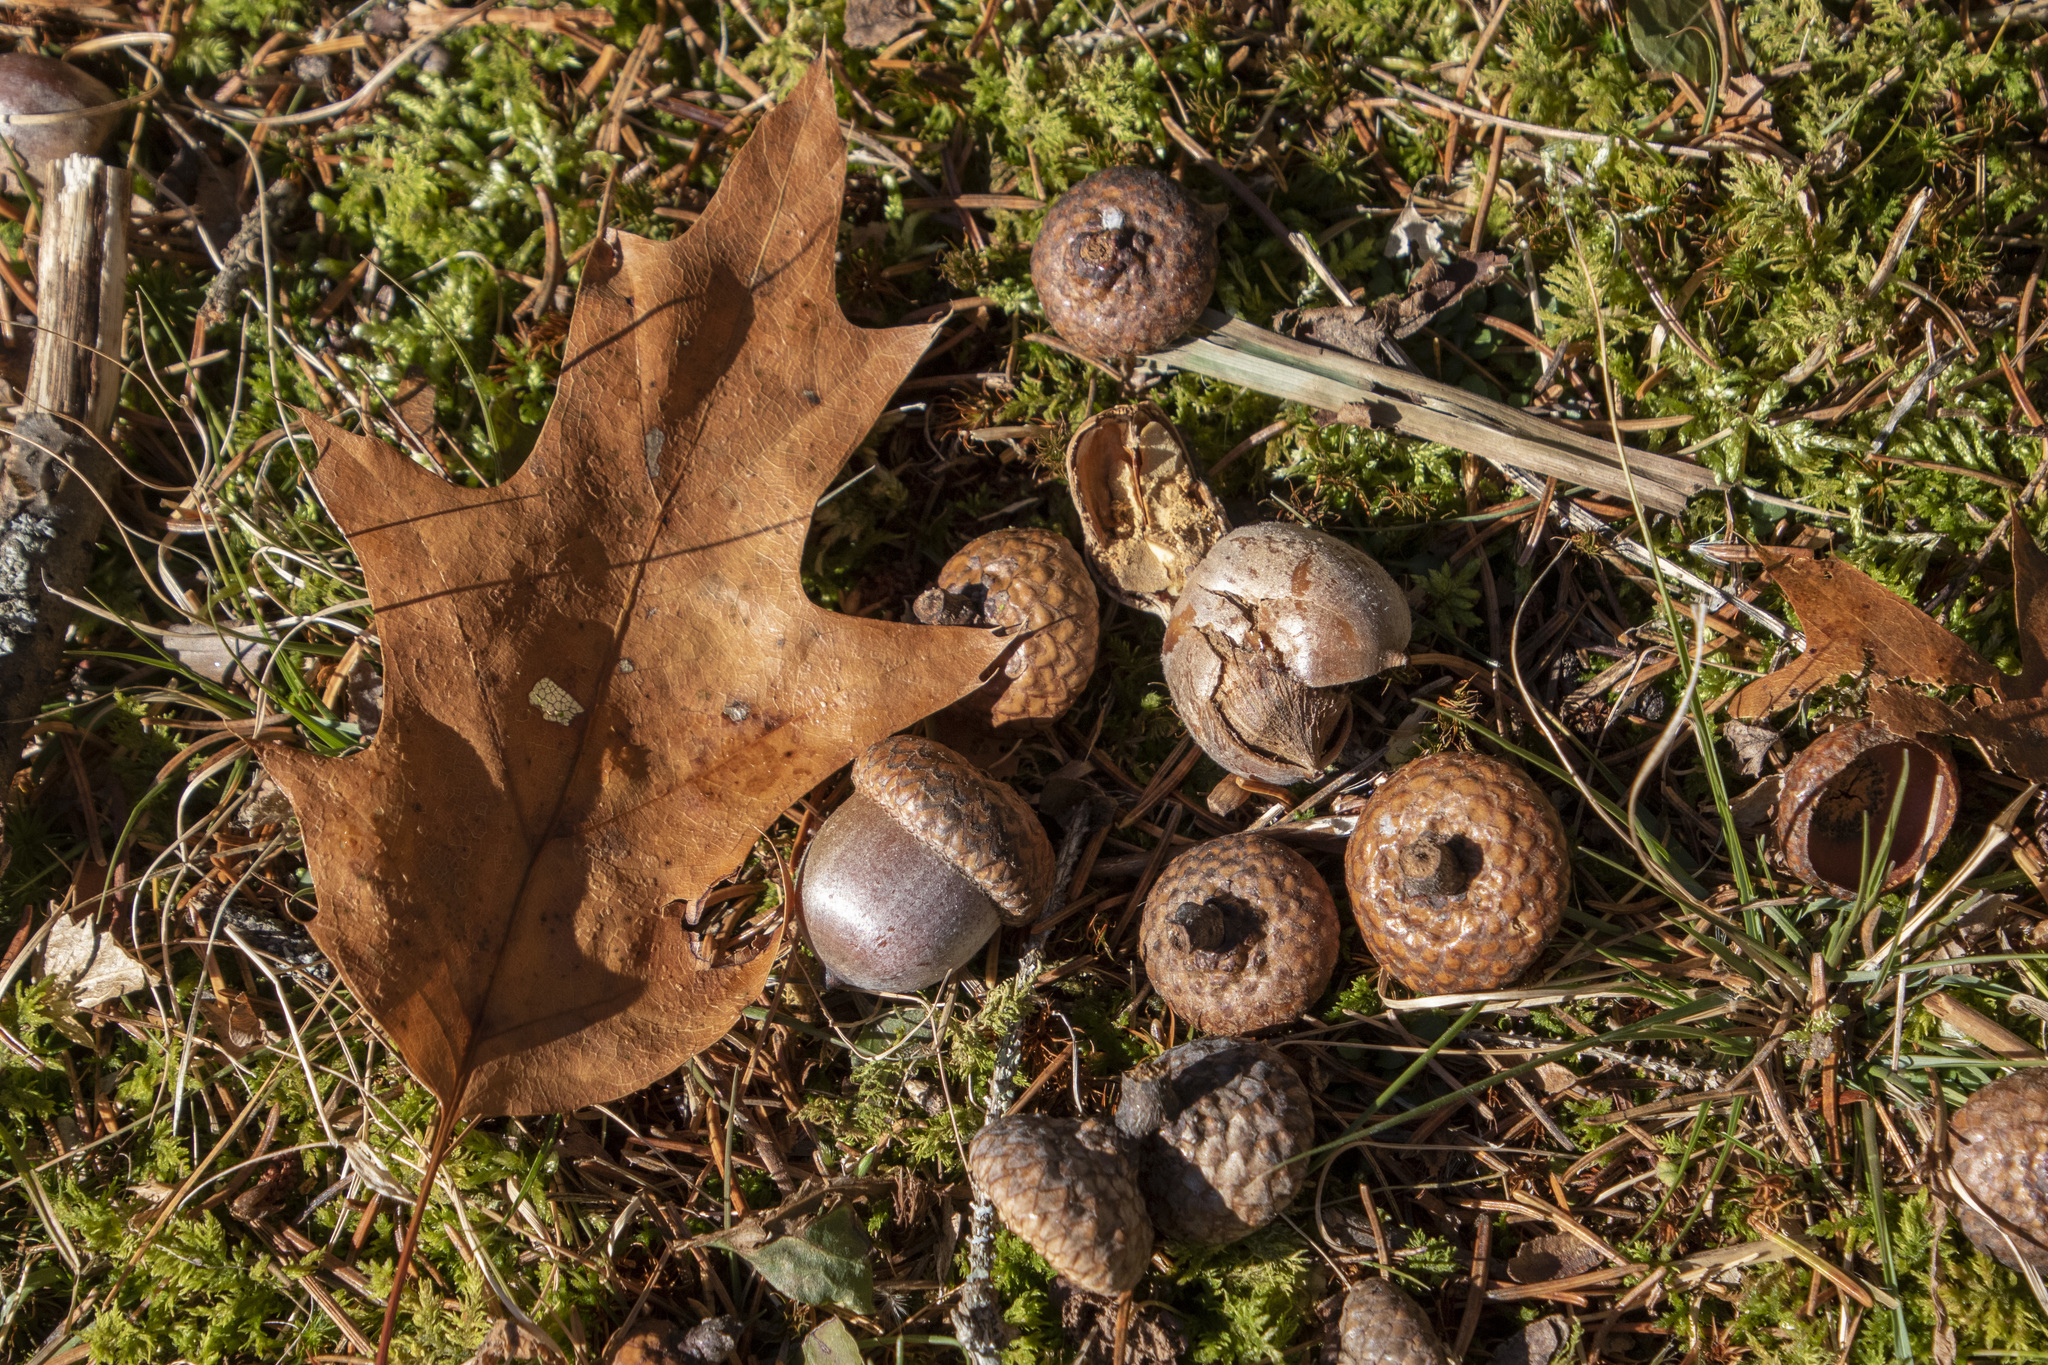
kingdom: Plantae
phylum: Tracheophyta
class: Magnoliopsida
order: Fagales
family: Fagaceae
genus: Quercus
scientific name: Quercus rubra
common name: Red oak
